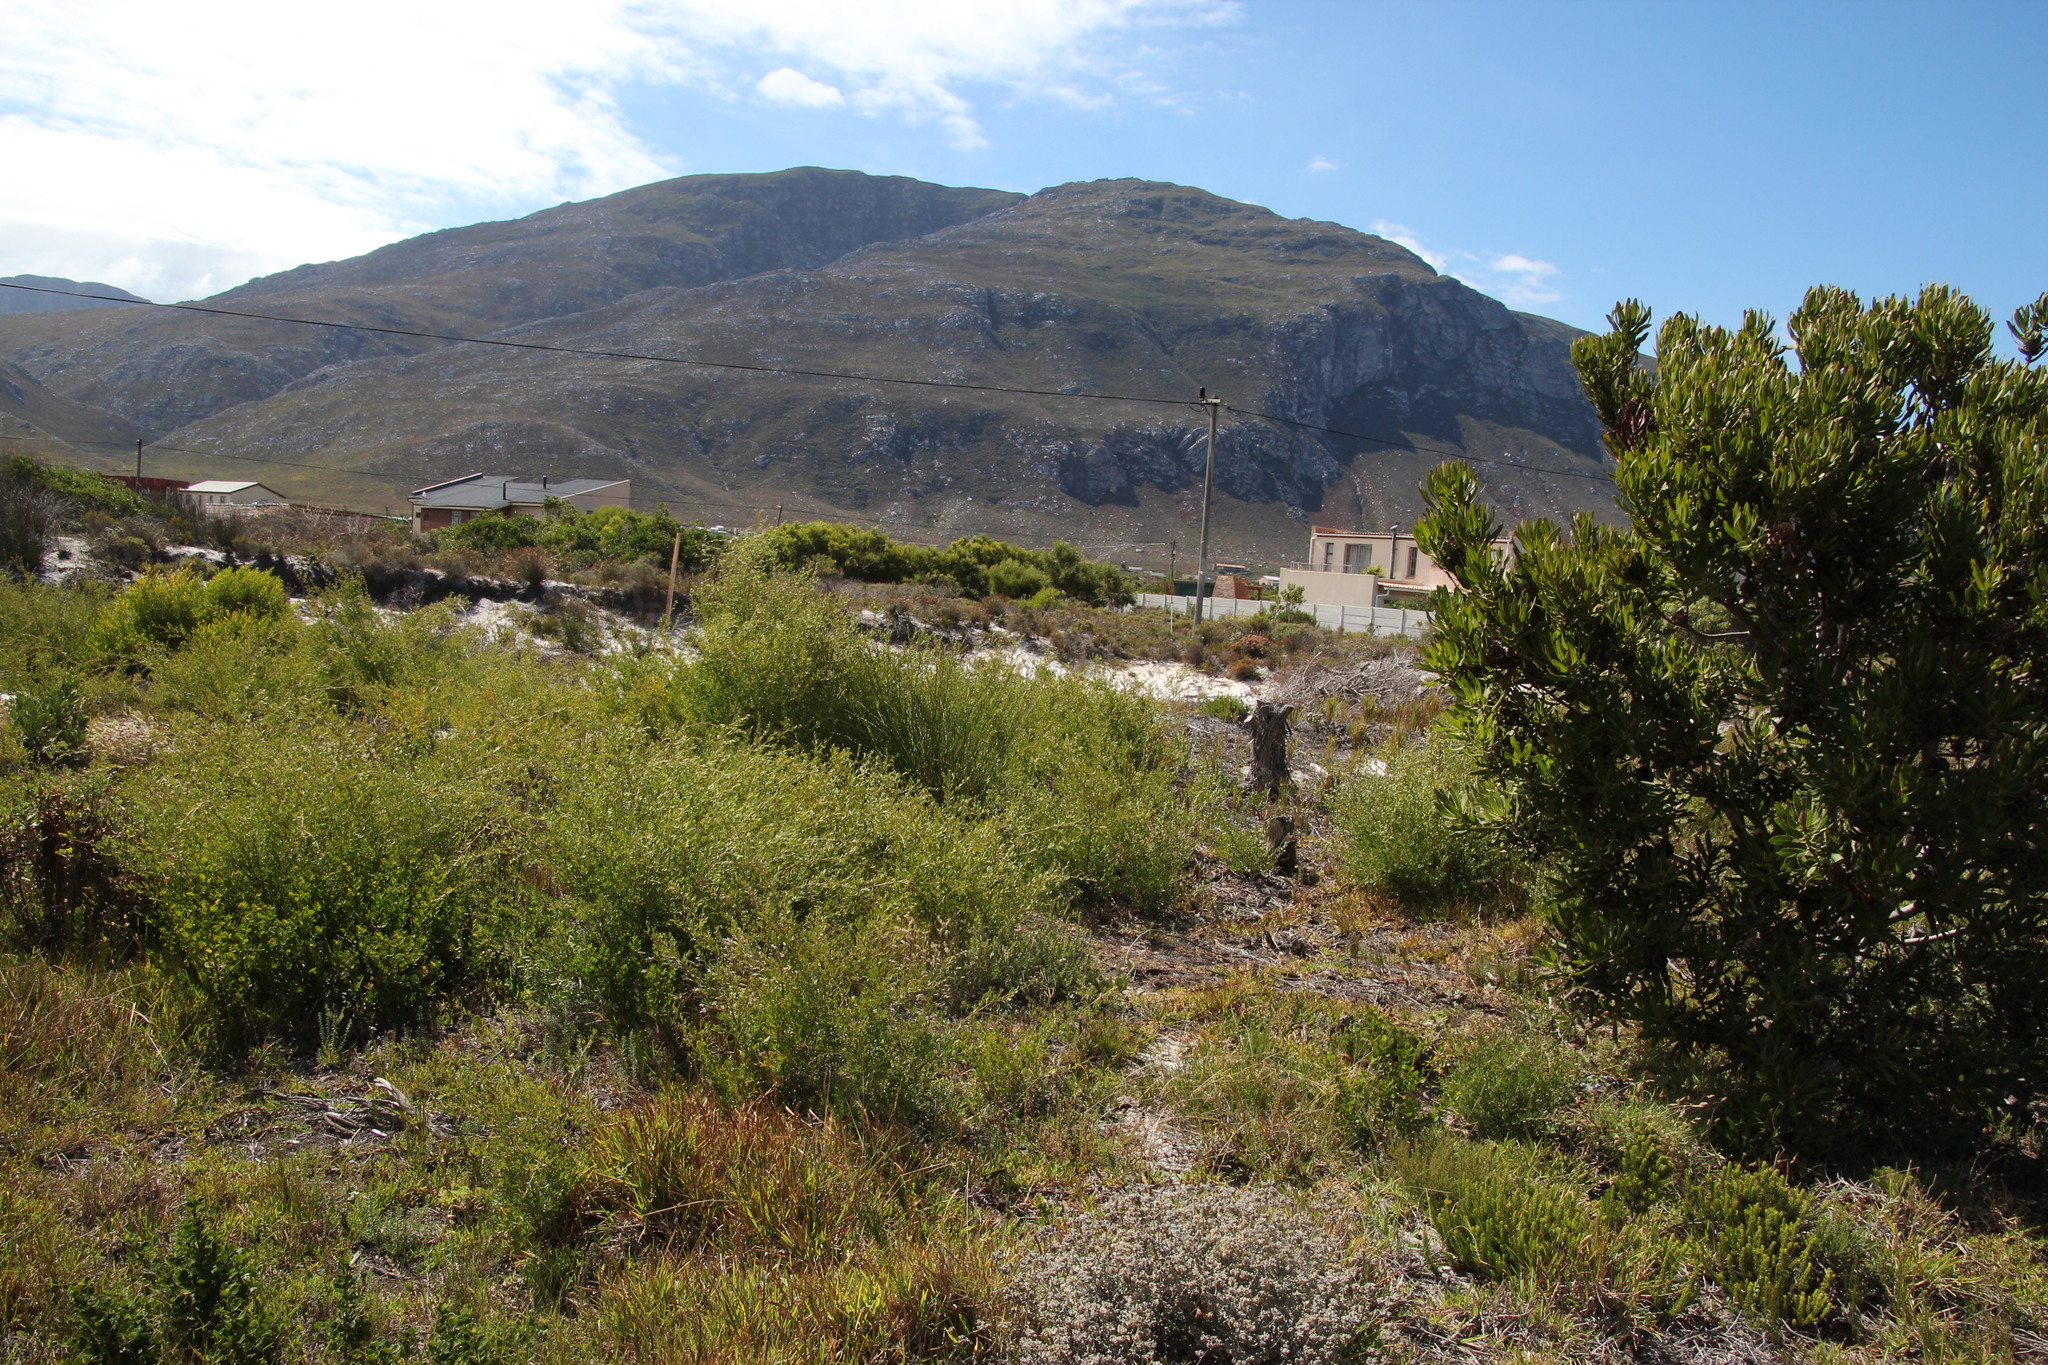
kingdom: Plantae
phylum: Tracheophyta
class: Magnoliopsida
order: Myrtales
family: Myrtaceae
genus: Leptospermum
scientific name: Leptospermum laevigatum
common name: Australian teatree
